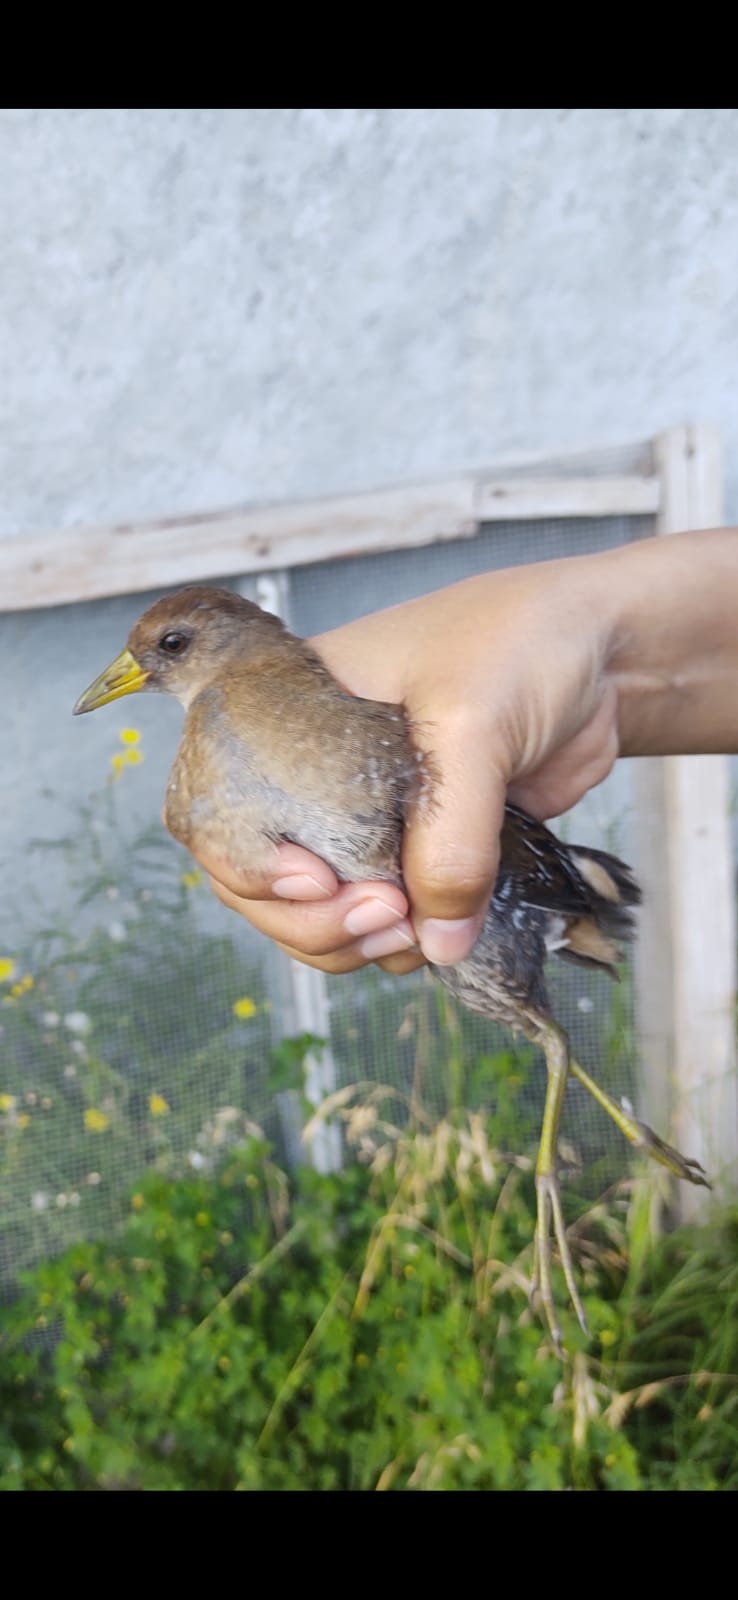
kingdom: Animalia
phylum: Chordata
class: Aves
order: Gruiformes
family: Rallidae
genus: Porzana
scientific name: Porzana carolina
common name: Sora
